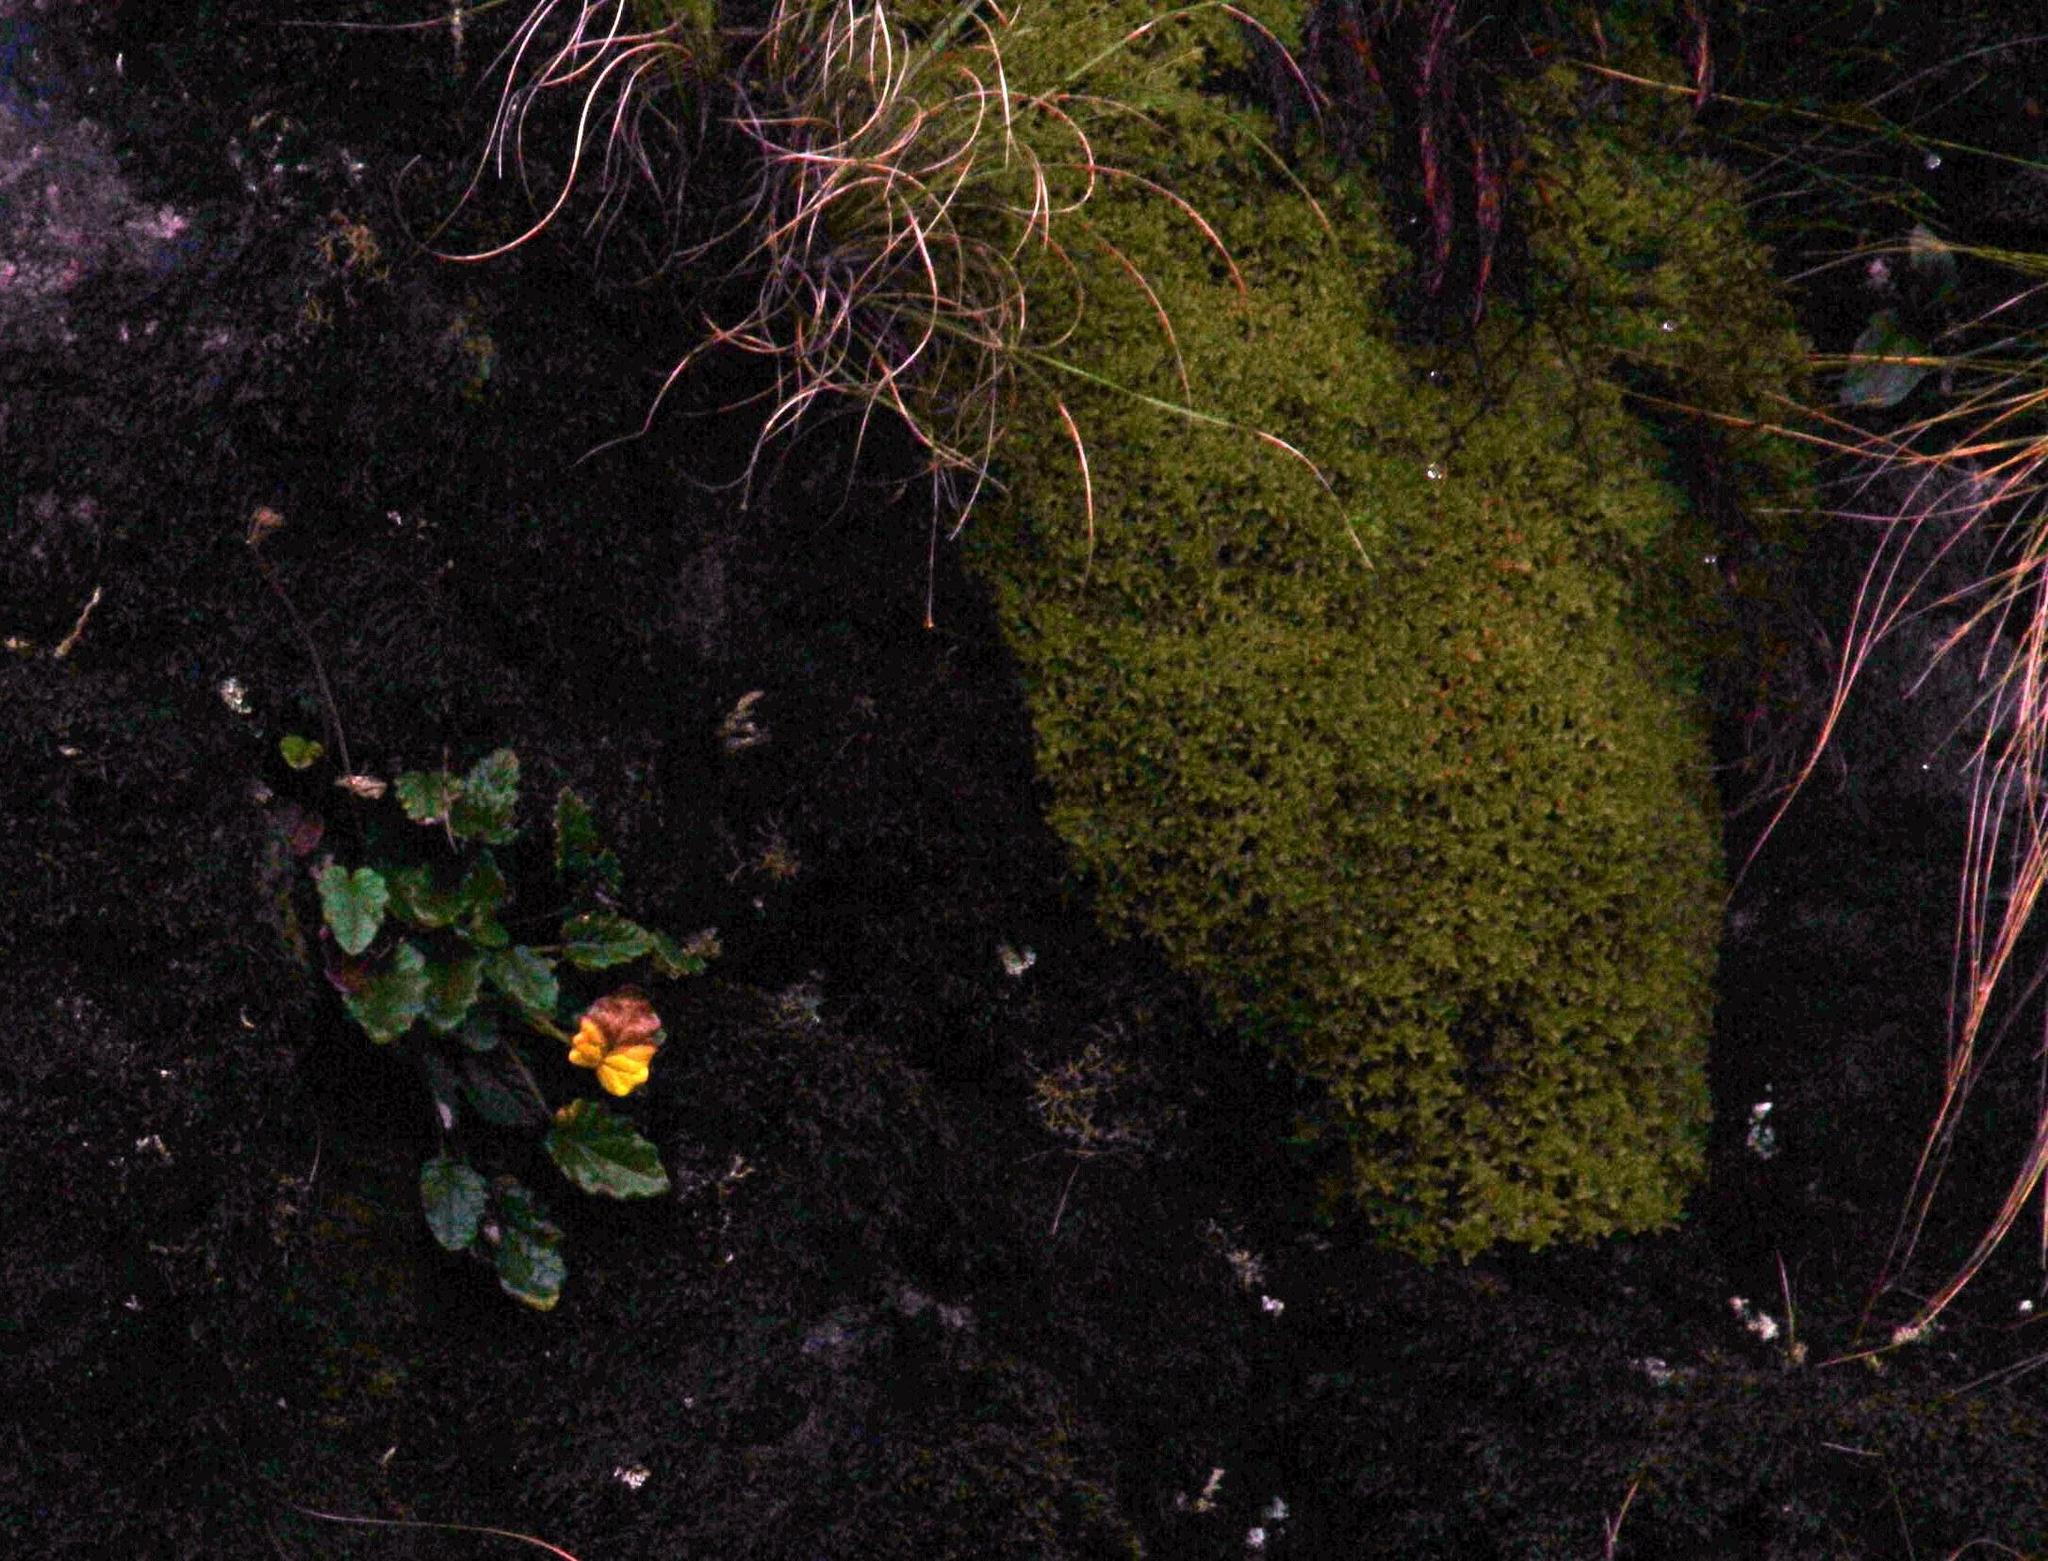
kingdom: Plantae
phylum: Tracheophyta
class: Magnoliopsida
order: Apiales
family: Apiaceae
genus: Hermas
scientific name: Hermas capitata
